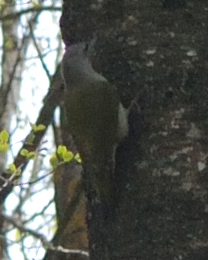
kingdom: Animalia
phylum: Chordata
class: Aves
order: Piciformes
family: Picidae
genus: Picus
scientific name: Picus canus
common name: Grey-headed woodpecker
